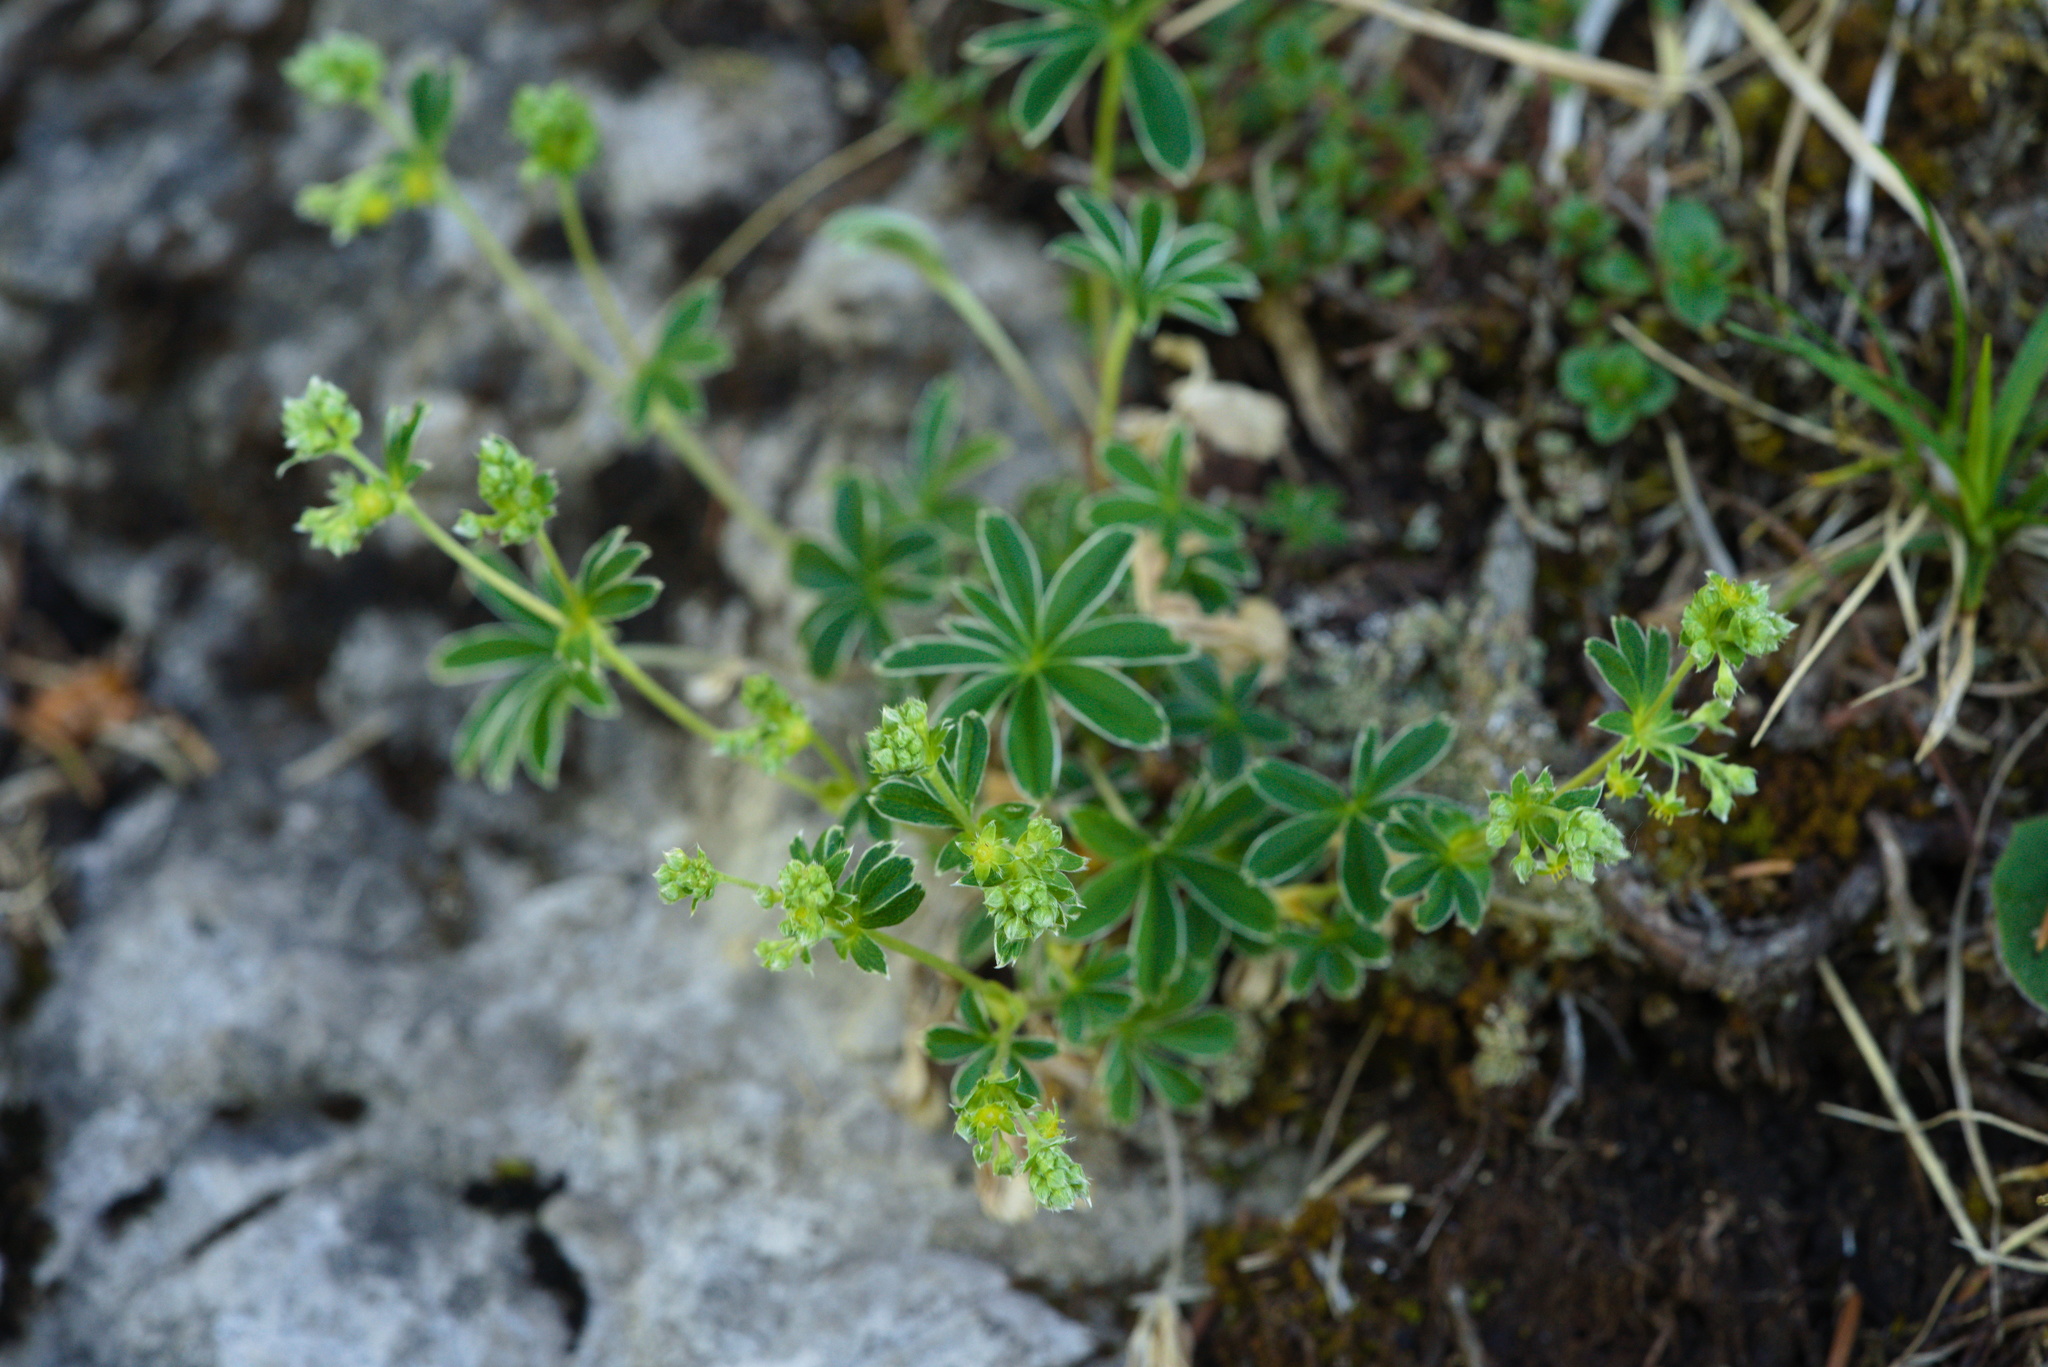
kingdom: Plantae
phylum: Tracheophyta
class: Magnoliopsida
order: Rosales
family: Rosaceae
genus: Alchemilla
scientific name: Alchemilla alpina
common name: Alpine lady's-mantle
